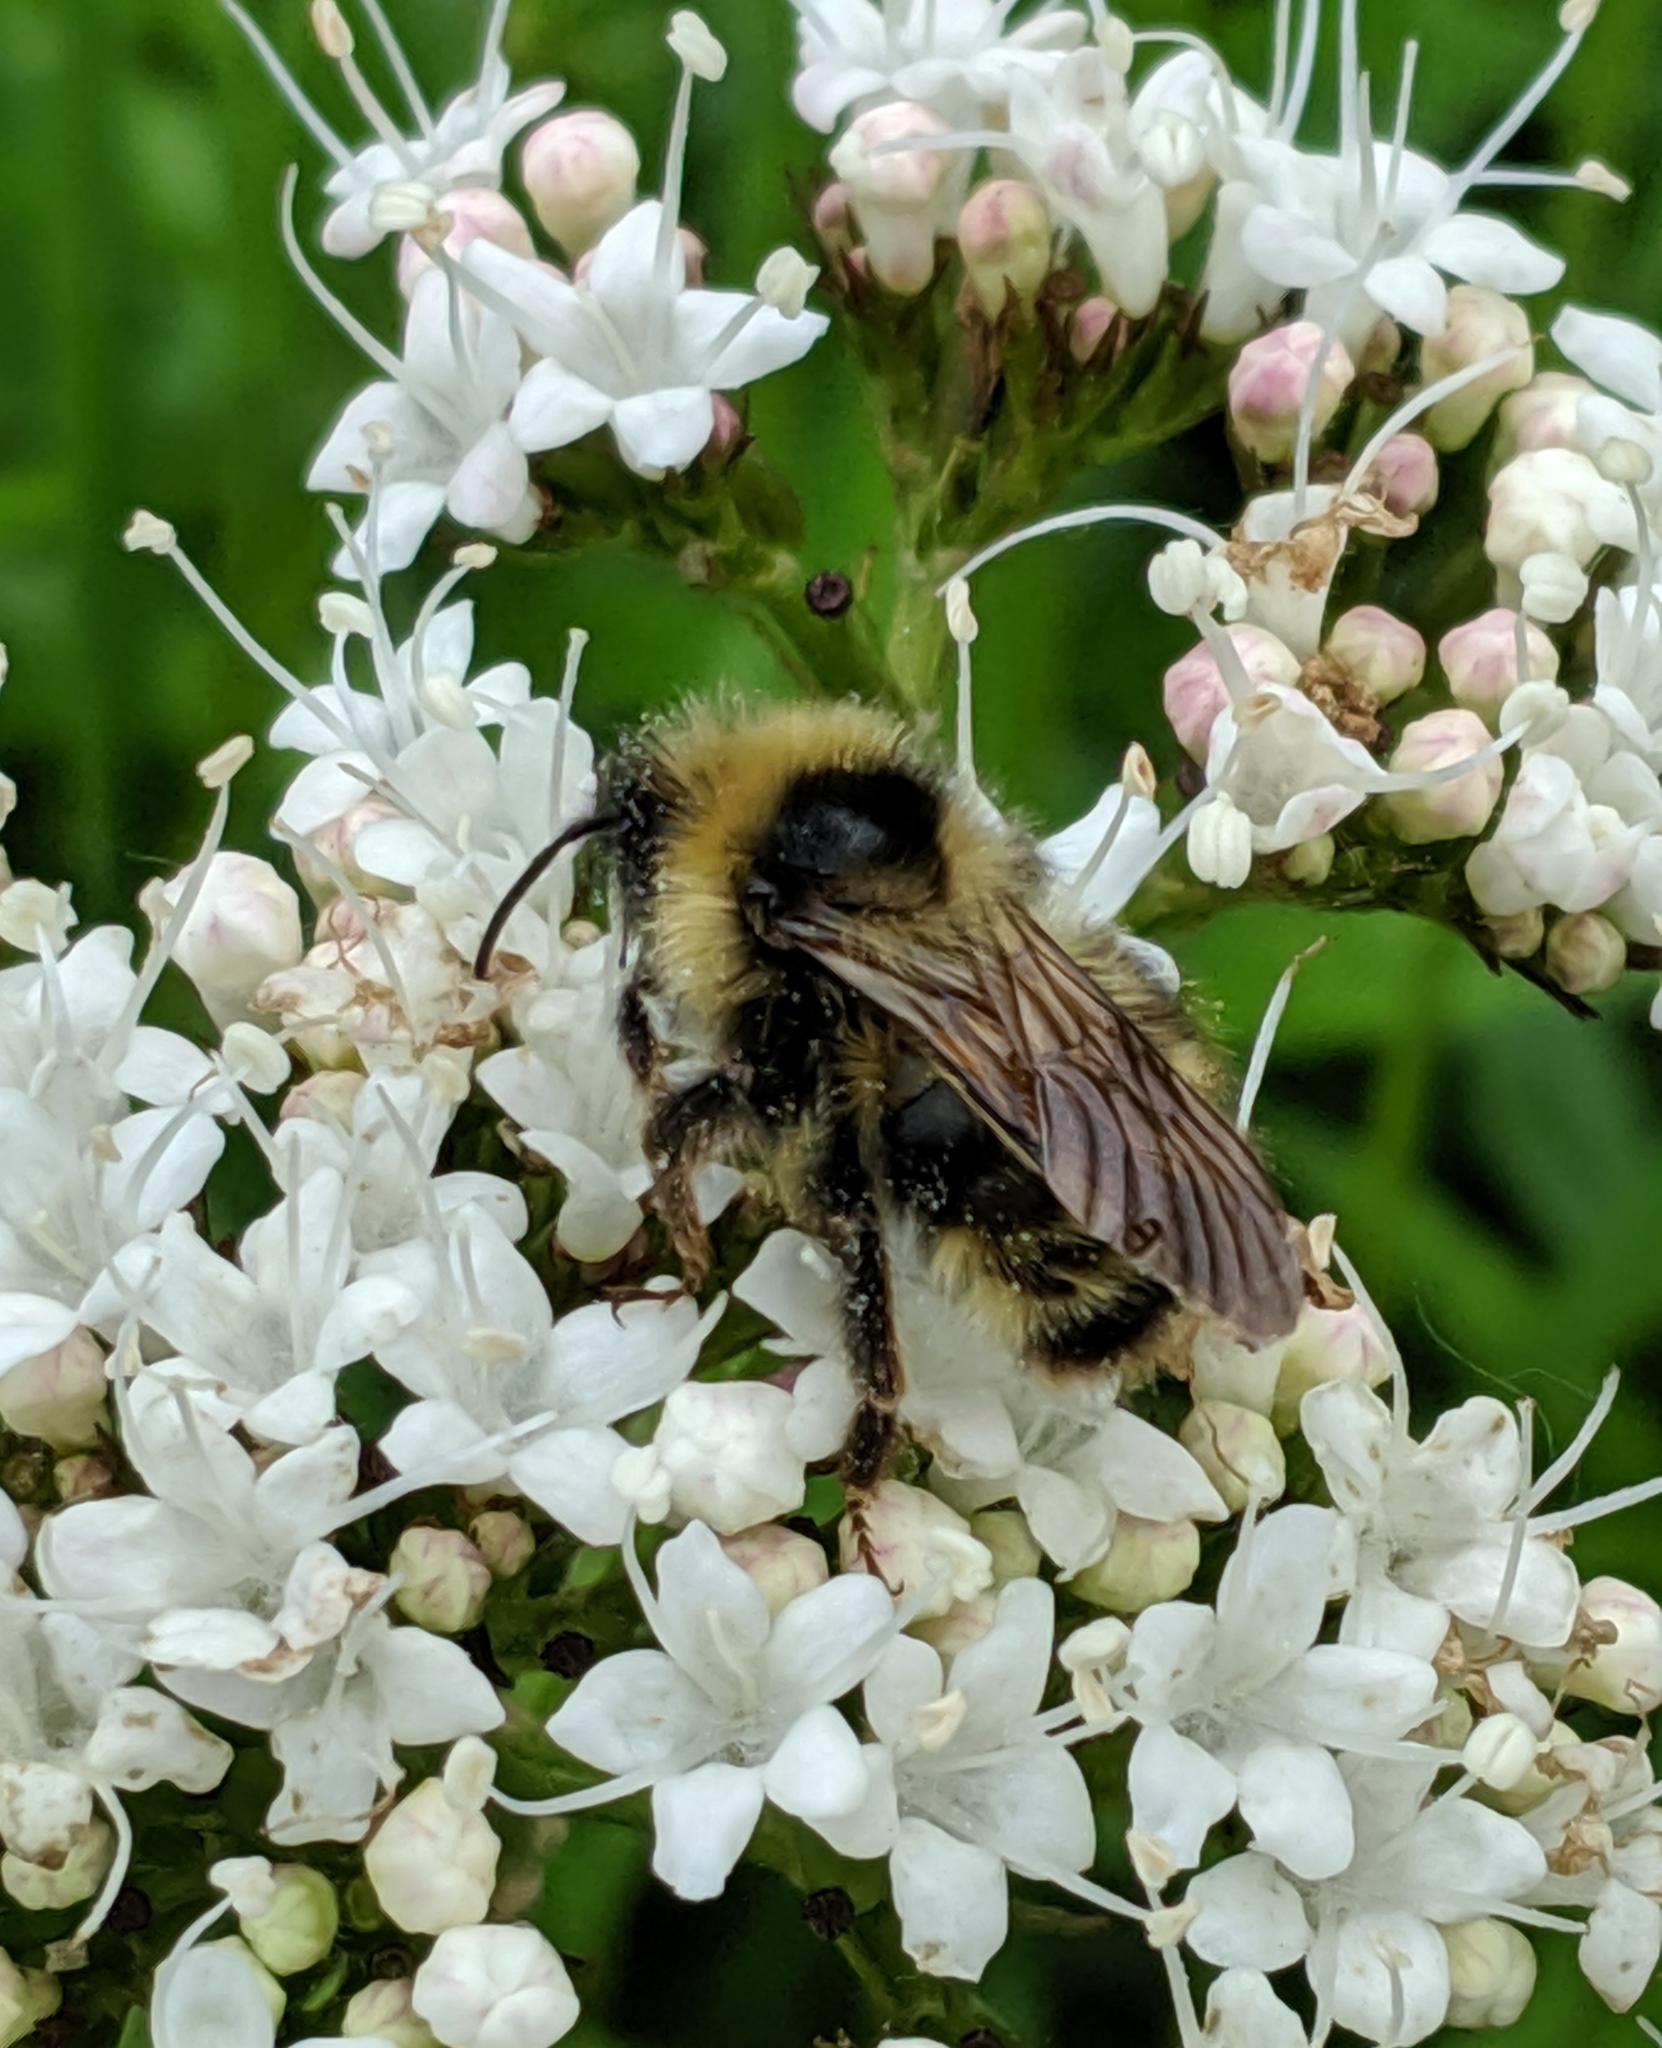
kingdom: Animalia
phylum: Arthropoda
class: Insecta
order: Hymenoptera
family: Apidae
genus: Bombus
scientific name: Bombus flavidus
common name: Fernald cuckoo bumble bee
